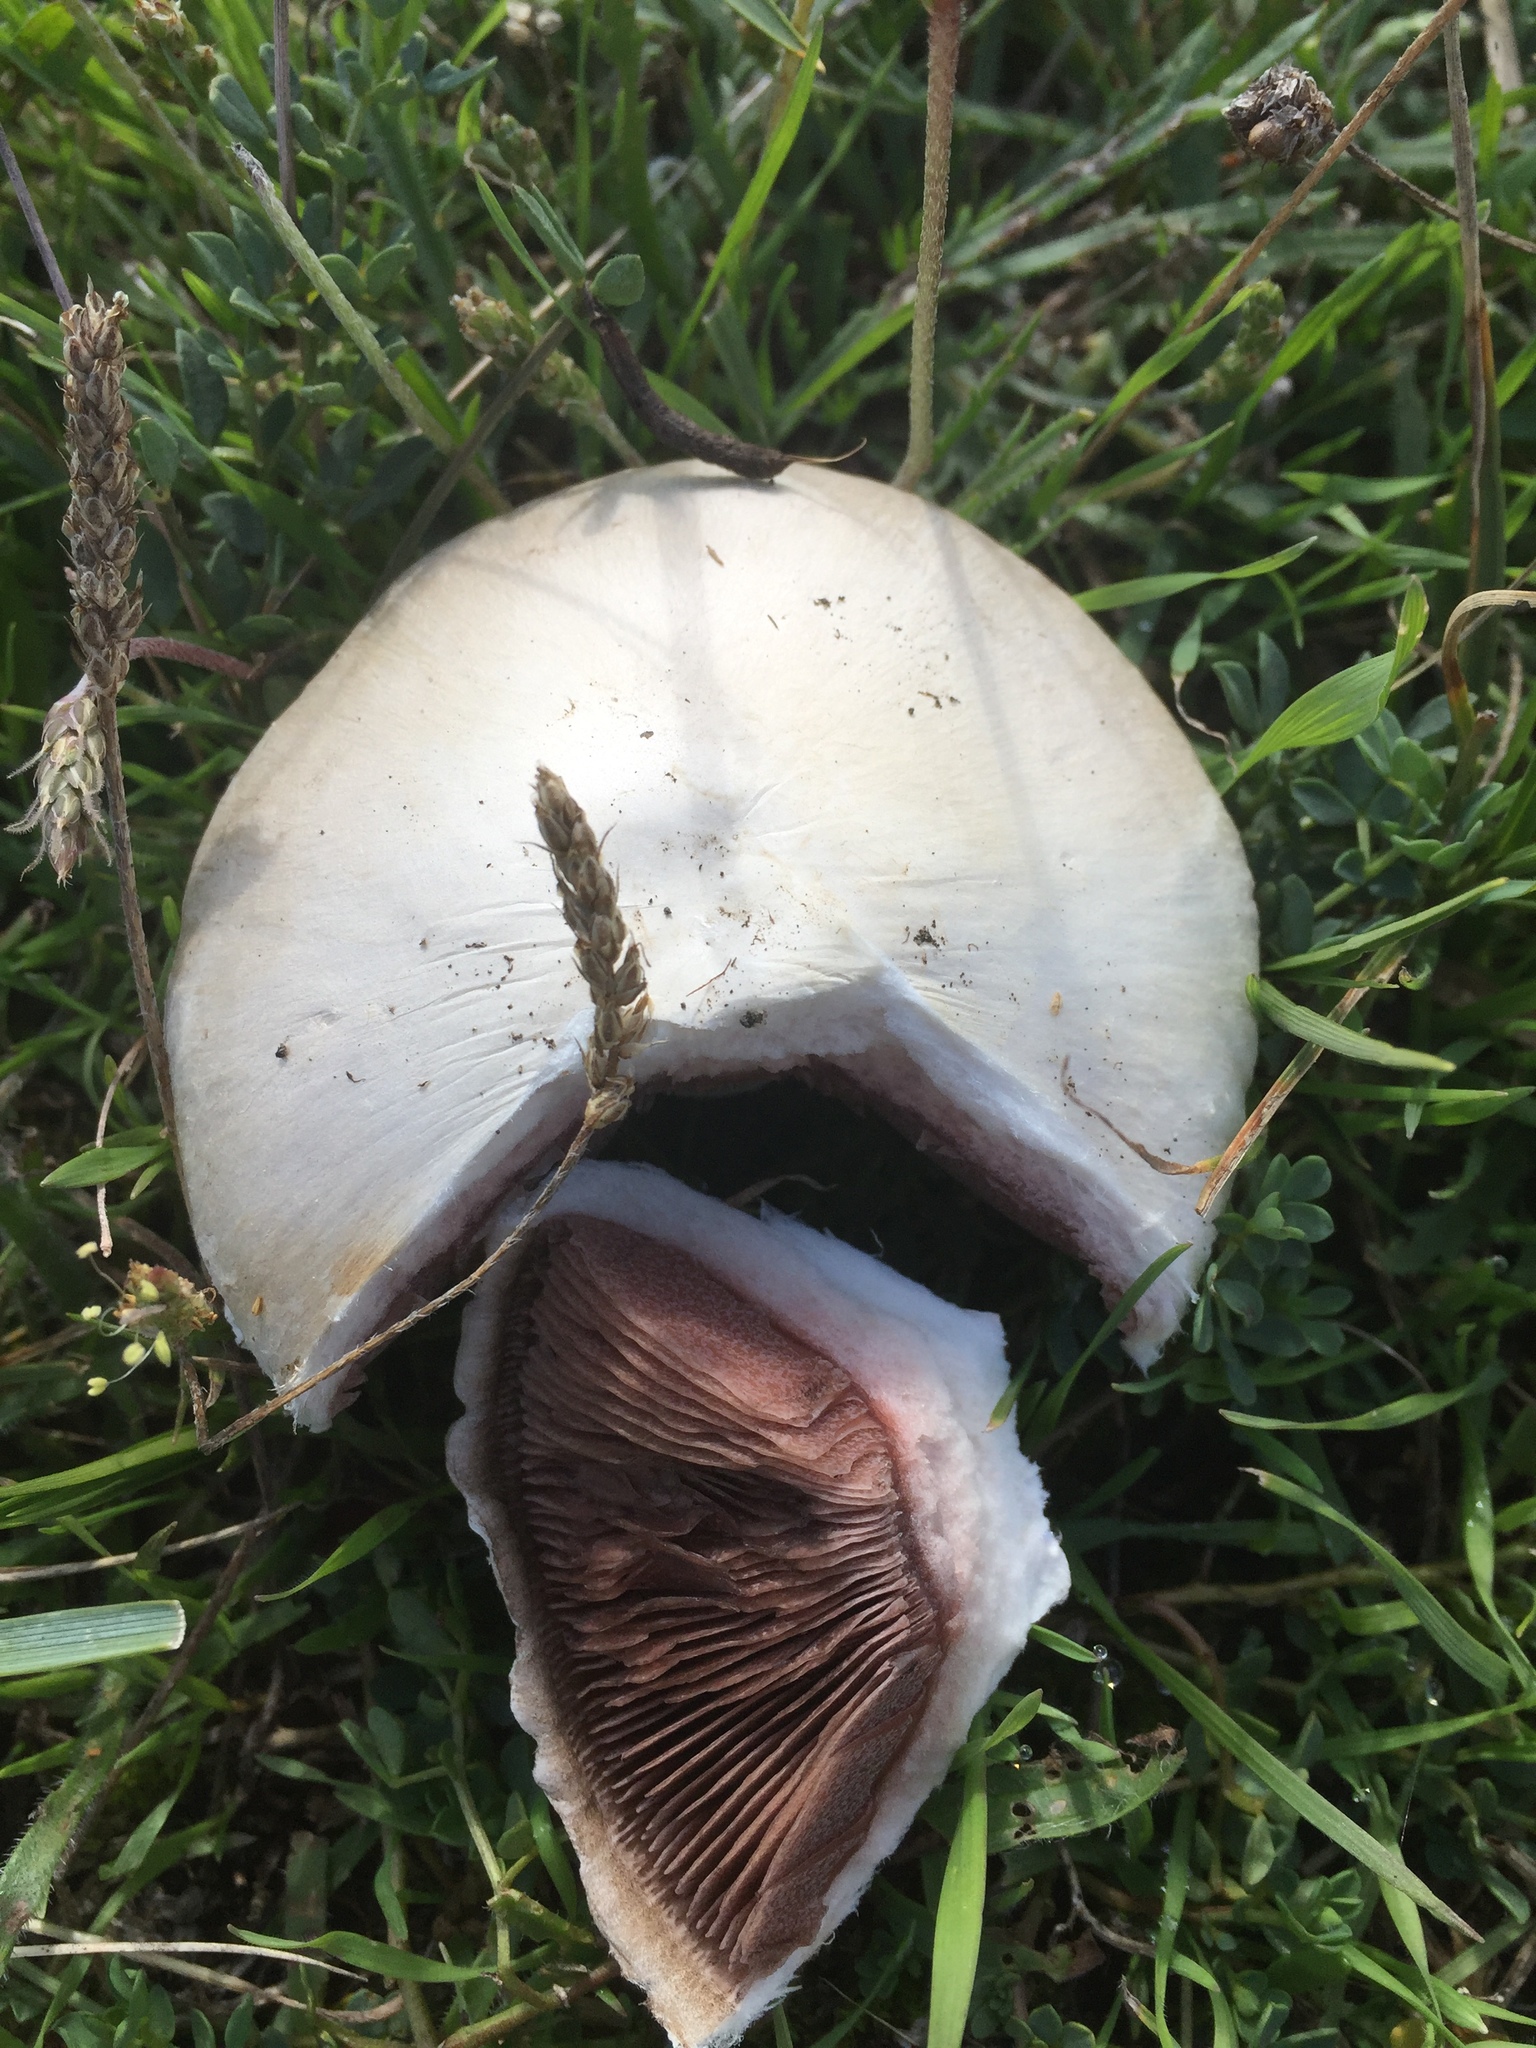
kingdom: Fungi
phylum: Basidiomycota
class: Agaricomycetes
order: Agaricales
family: Agaricaceae
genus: Agaricus
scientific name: Agaricus campestris
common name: Field mushroom
